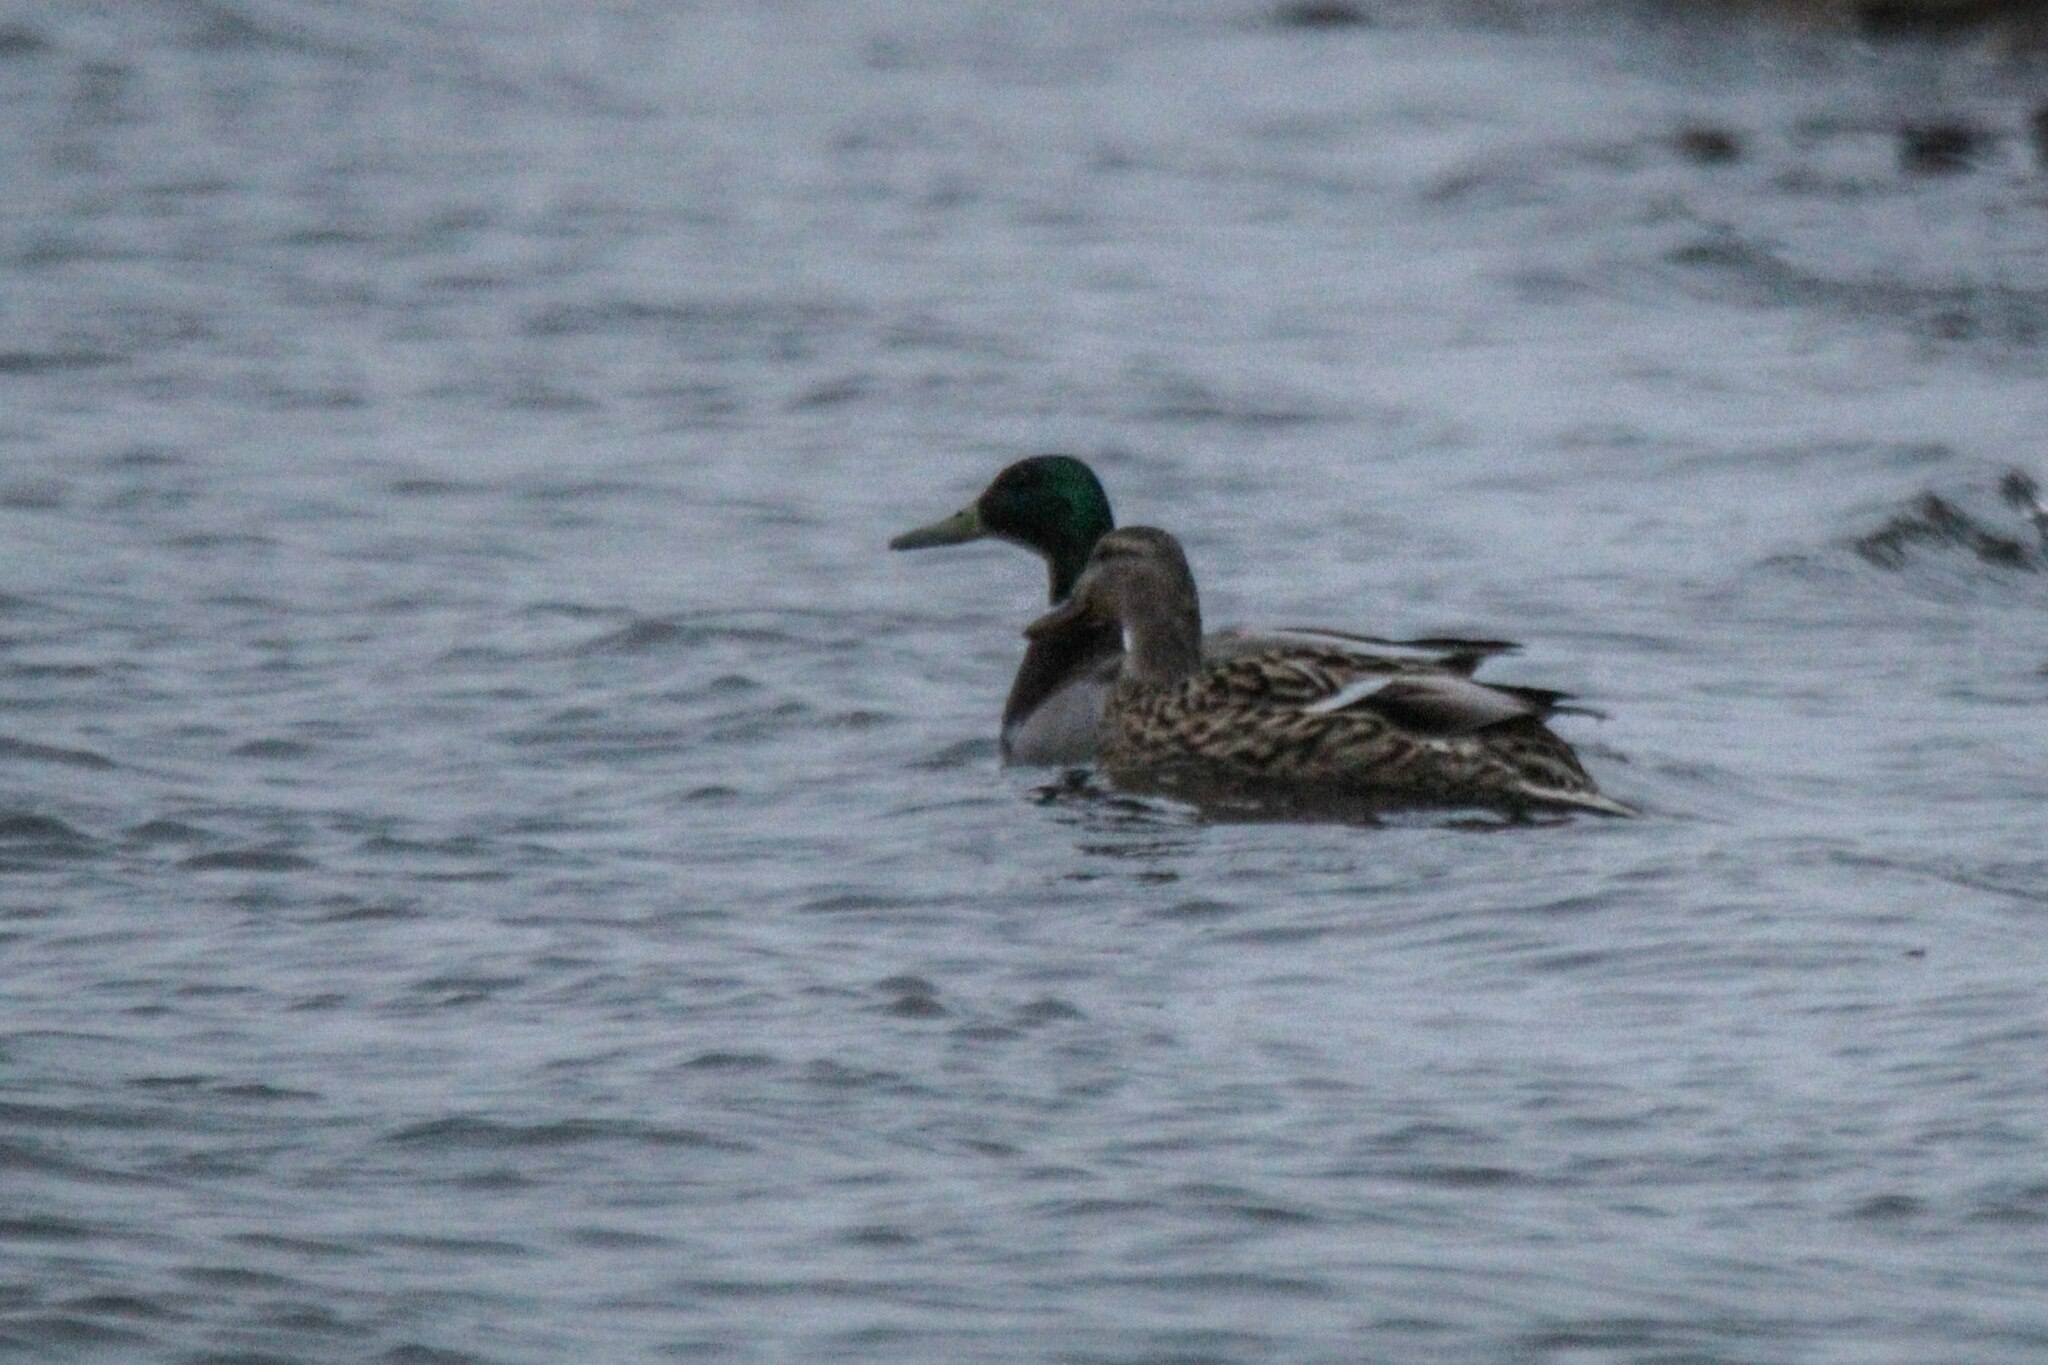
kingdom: Animalia
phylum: Chordata
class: Aves
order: Anseriformes
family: Anatidae
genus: Anas
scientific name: Anas platyrhynchos
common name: Mallard
